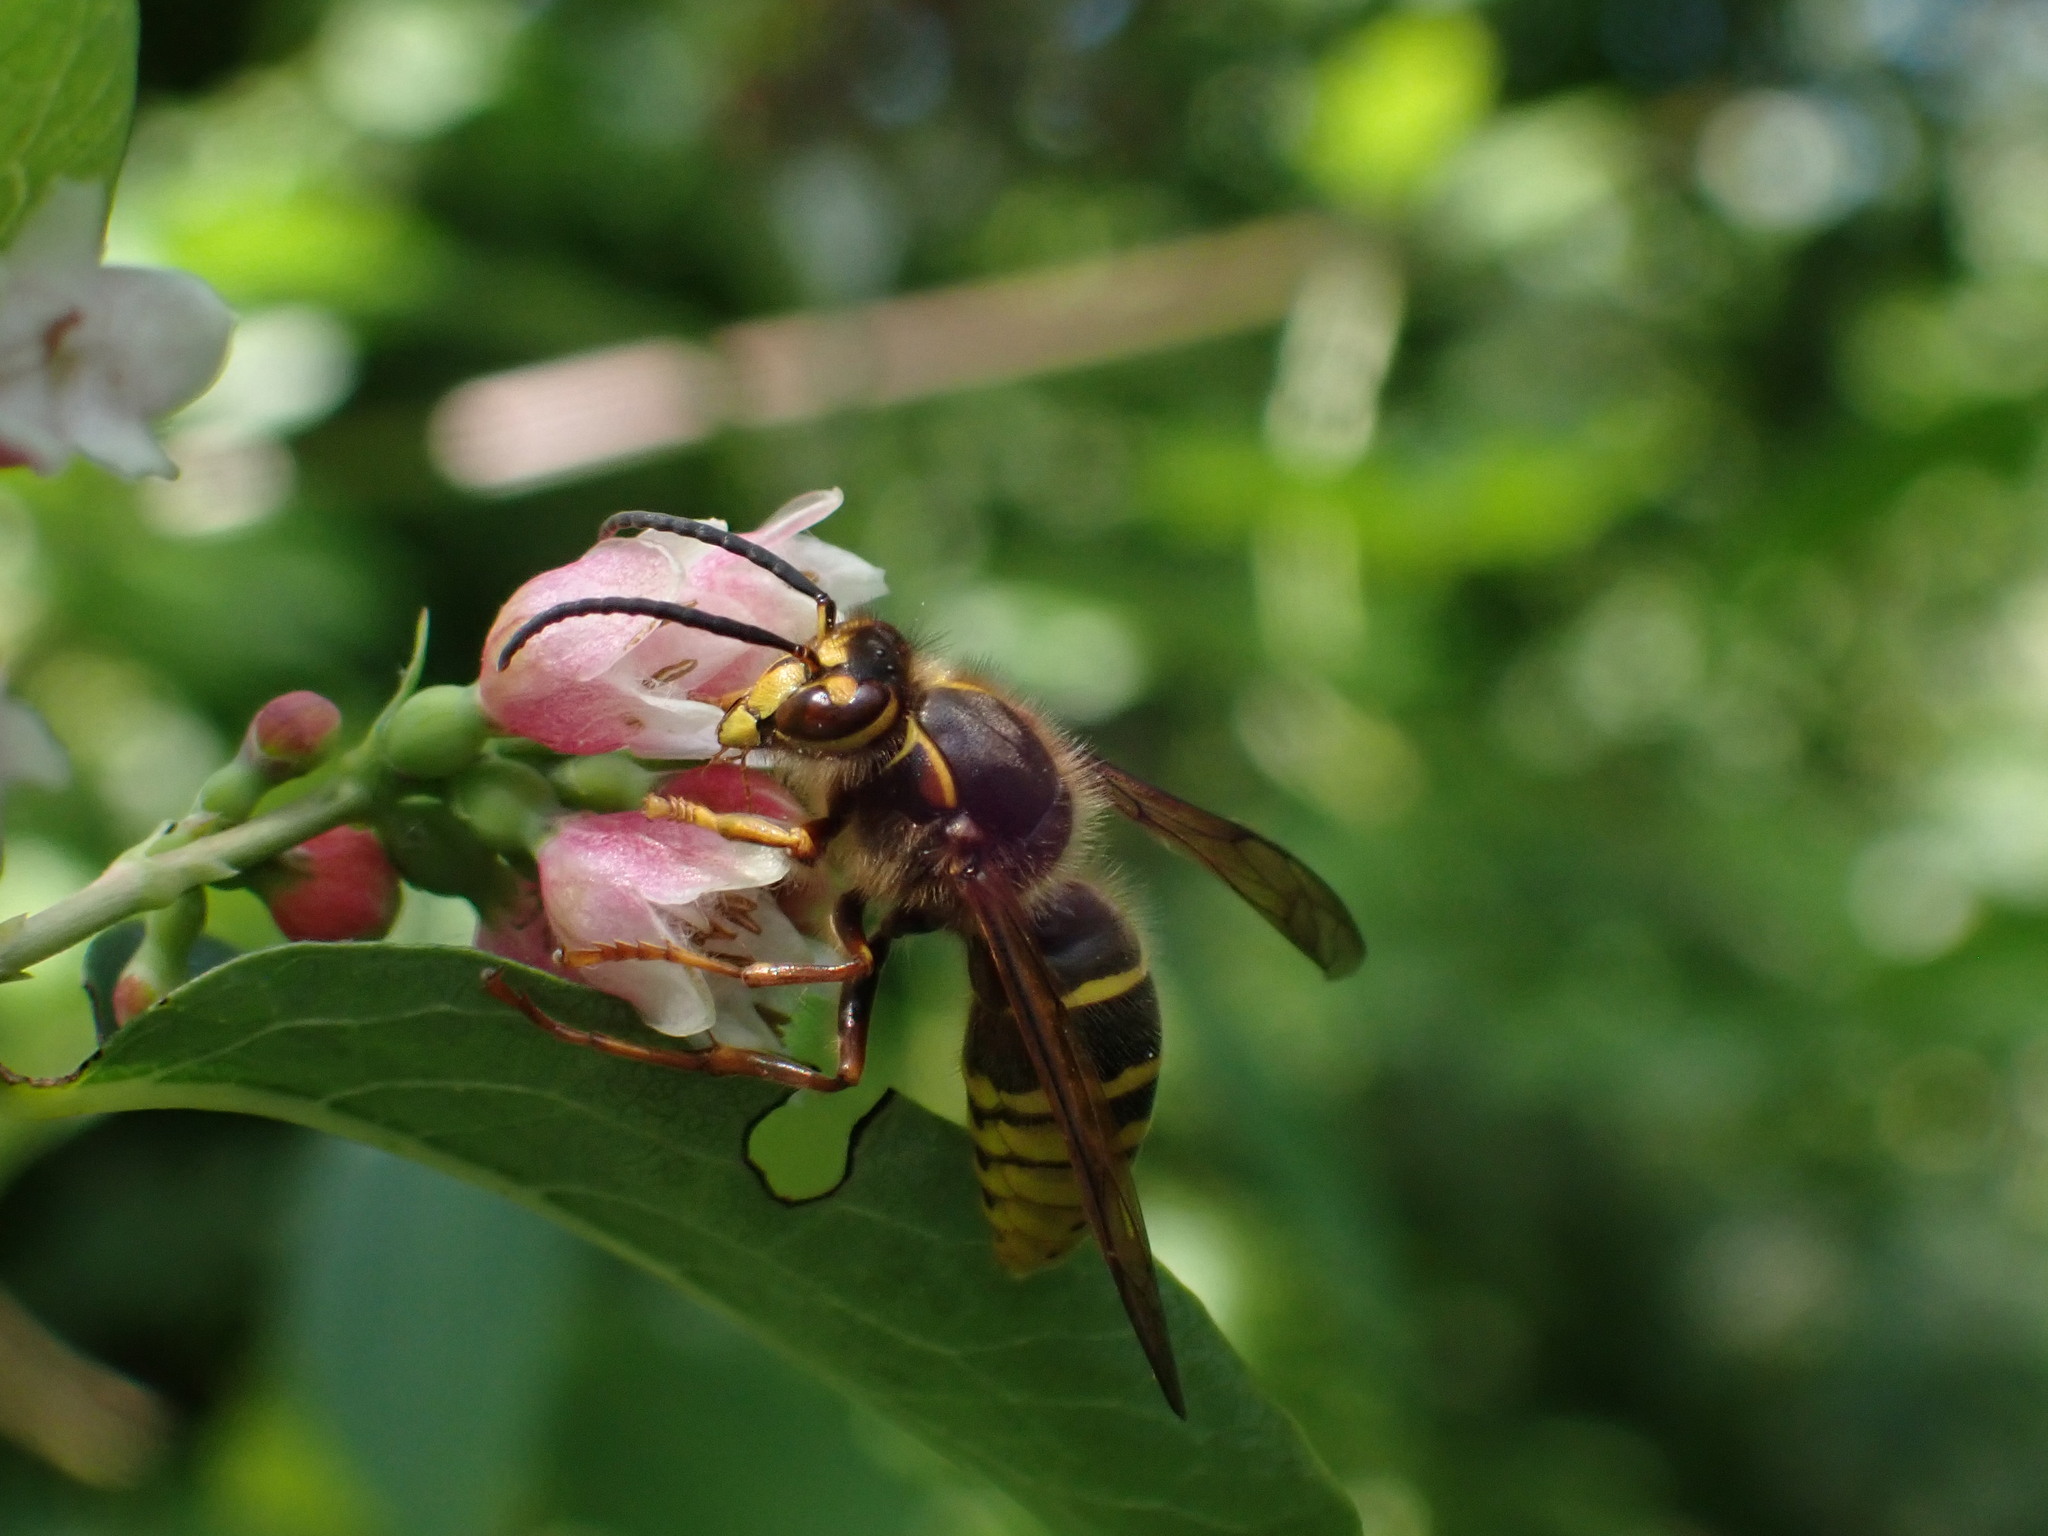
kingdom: Animalia
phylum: Arthropoda
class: Insecta
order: Hymenoptera
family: Vespidae
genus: Dolichovespula
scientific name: Dolichovespula media
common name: Median wasp
